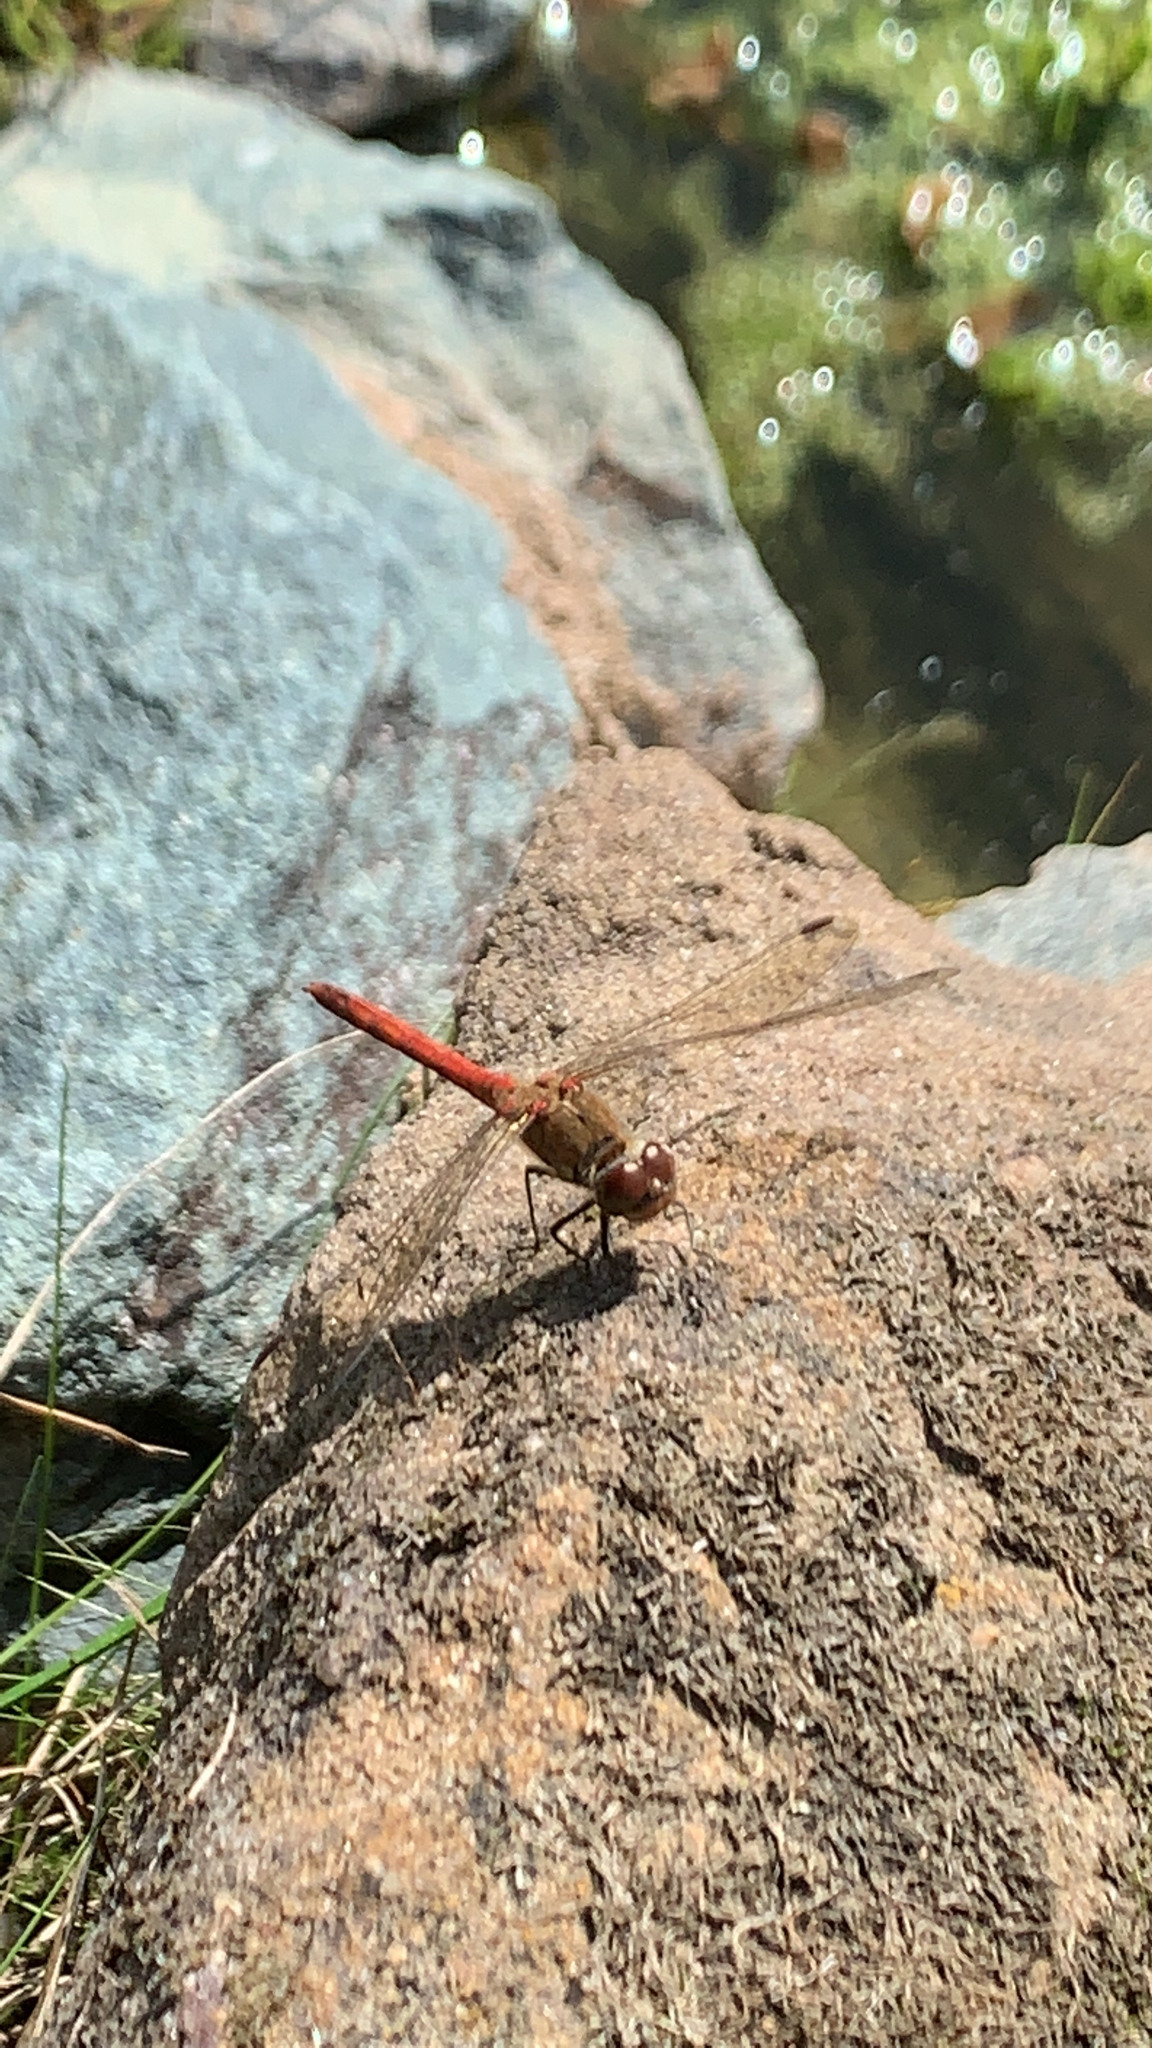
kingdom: Animalia
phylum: Arthropoda
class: Insecta
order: Odonata
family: Libellulidae
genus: Sympetrum
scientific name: Sympetrum striolatum
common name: Common darter
